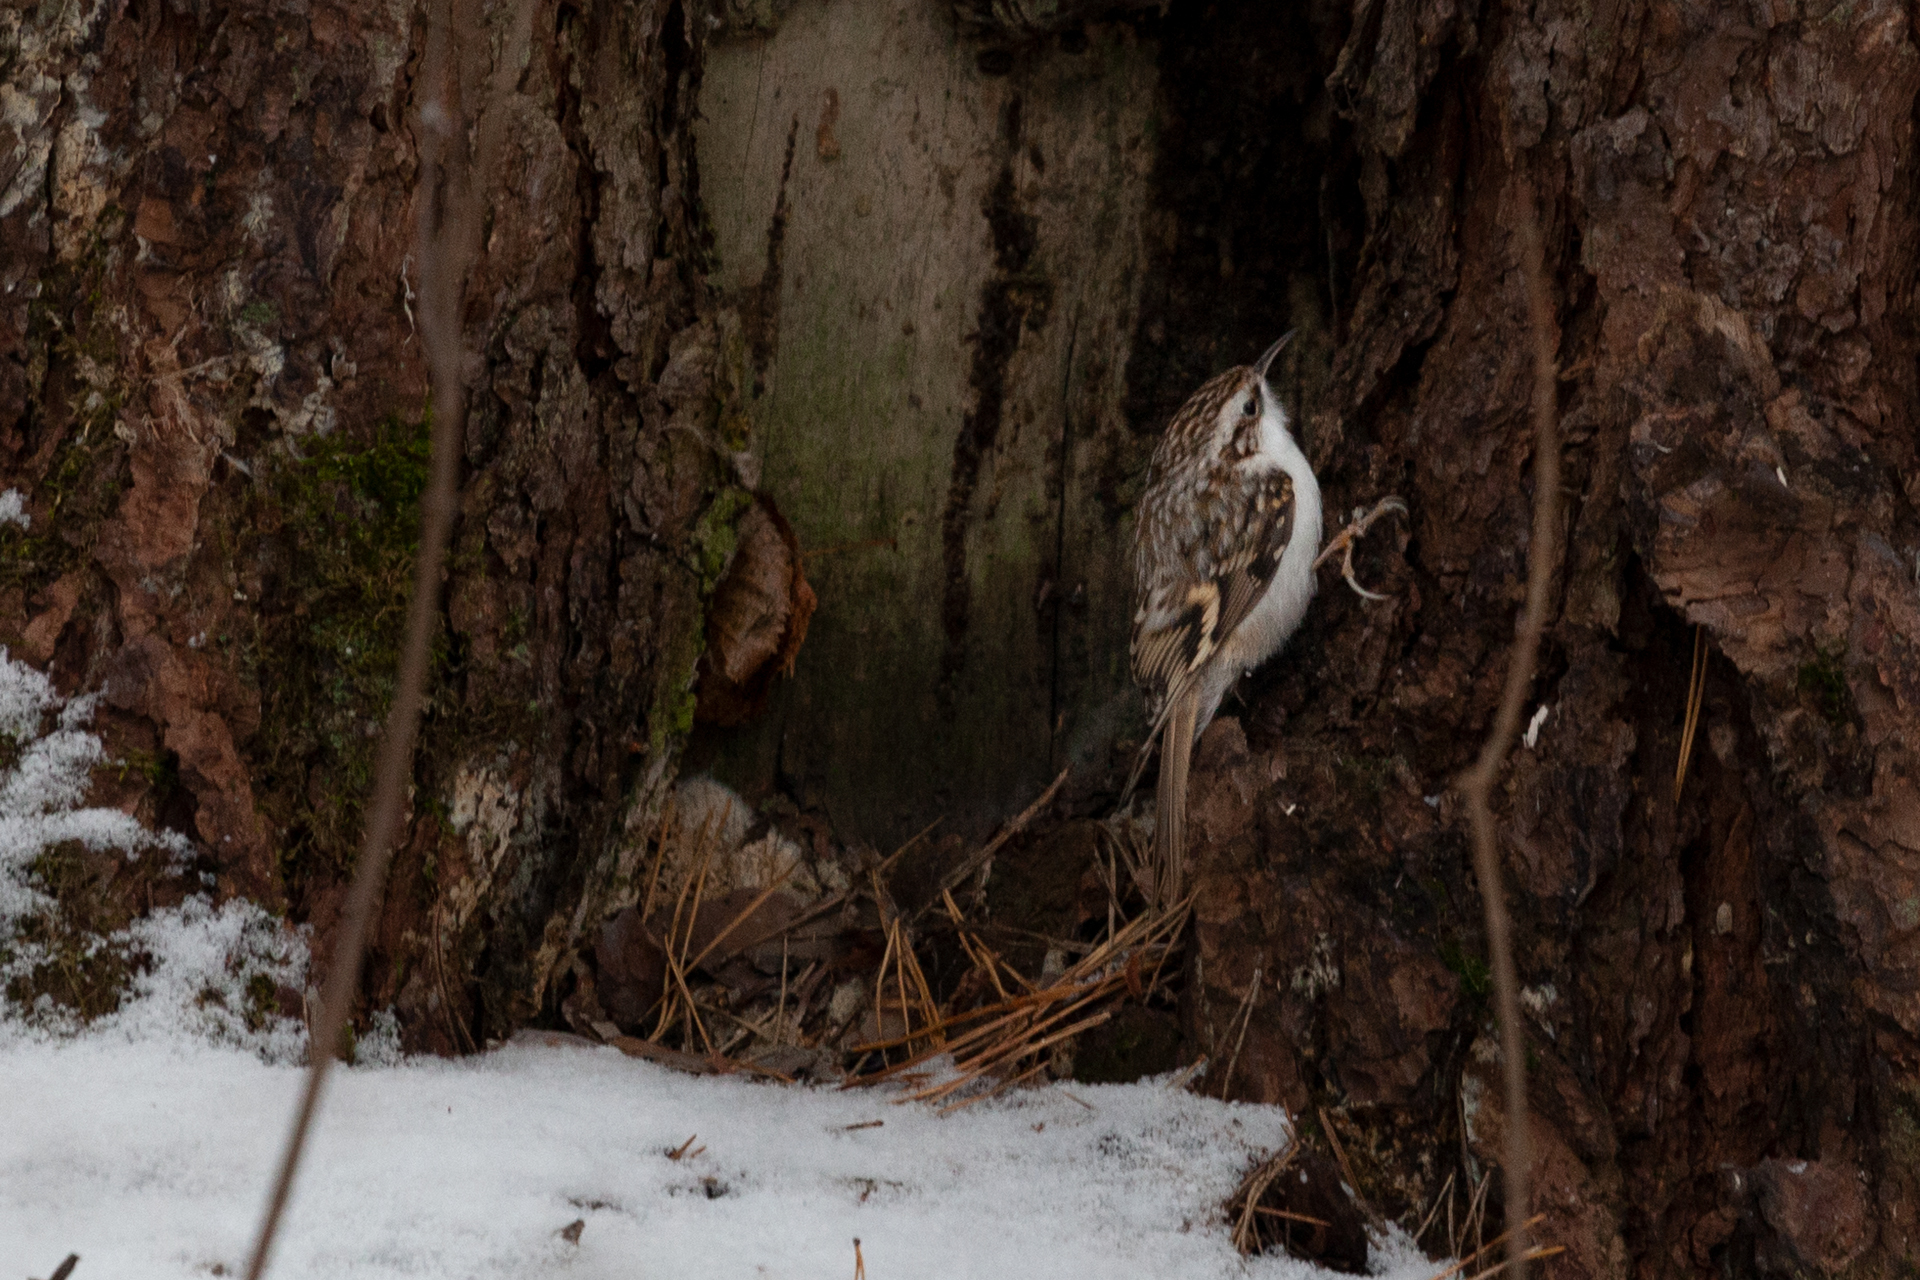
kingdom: Animalia
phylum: Chordata
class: Aves
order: Passeriformes
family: Certhiidae
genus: Certhia
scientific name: Certhia familiaris
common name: Eurasian treecreeper
